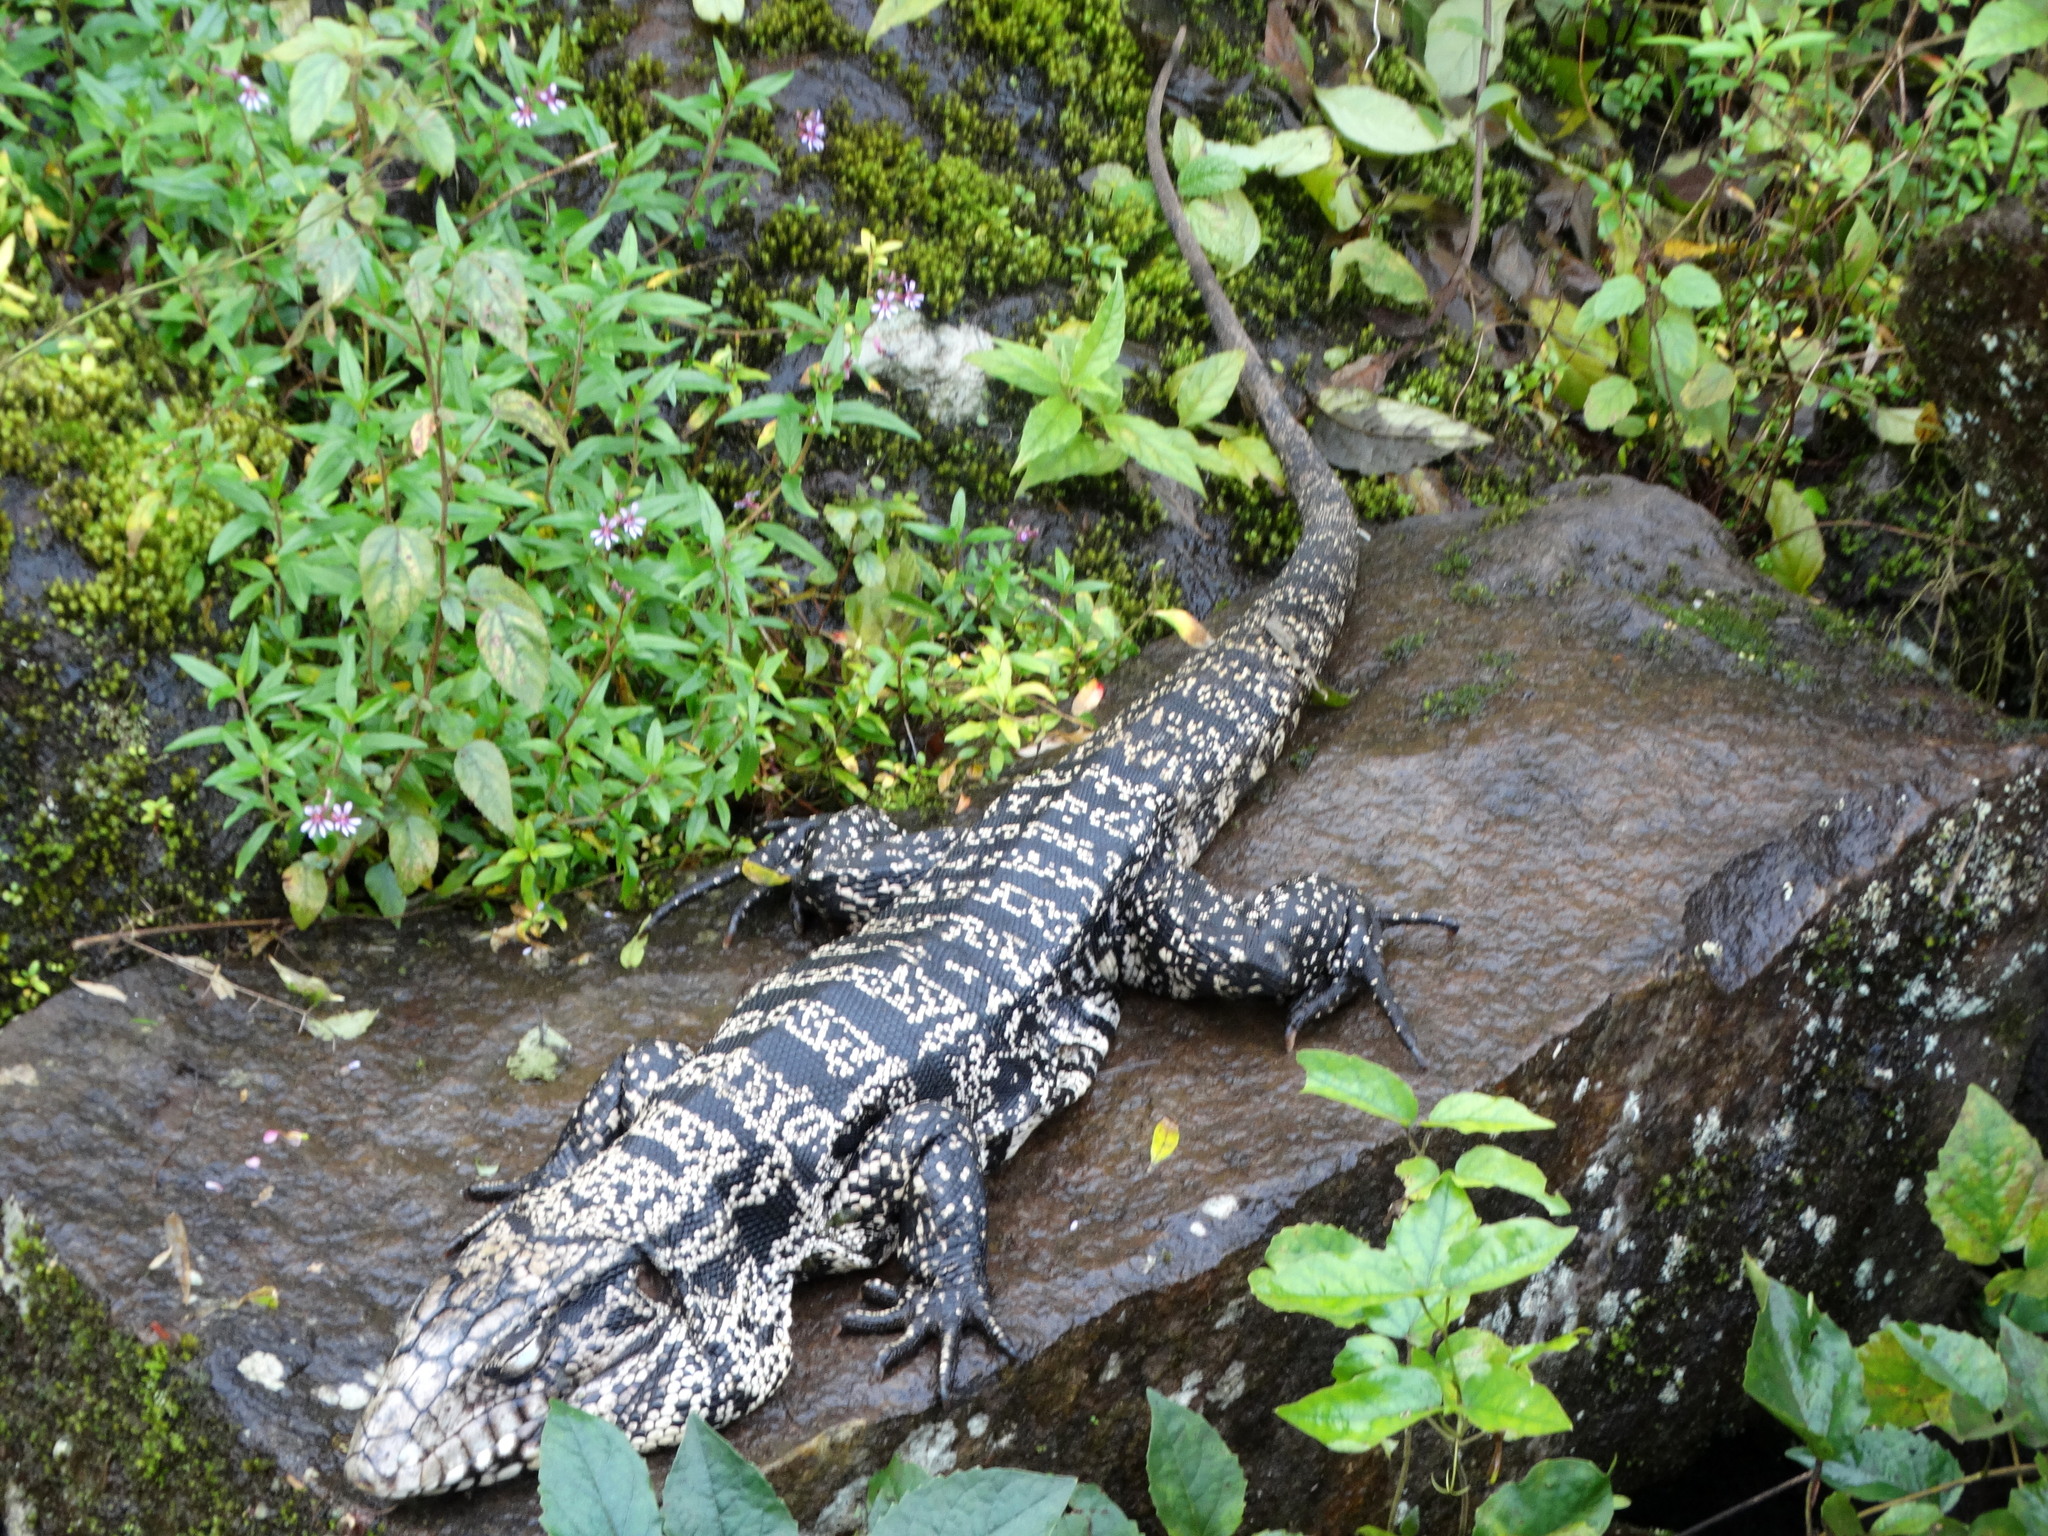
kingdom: Animalia
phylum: Chordata
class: Squamata
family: Teiidae
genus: Salvator
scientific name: Salvator merianae
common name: Argentine black and white tegu
